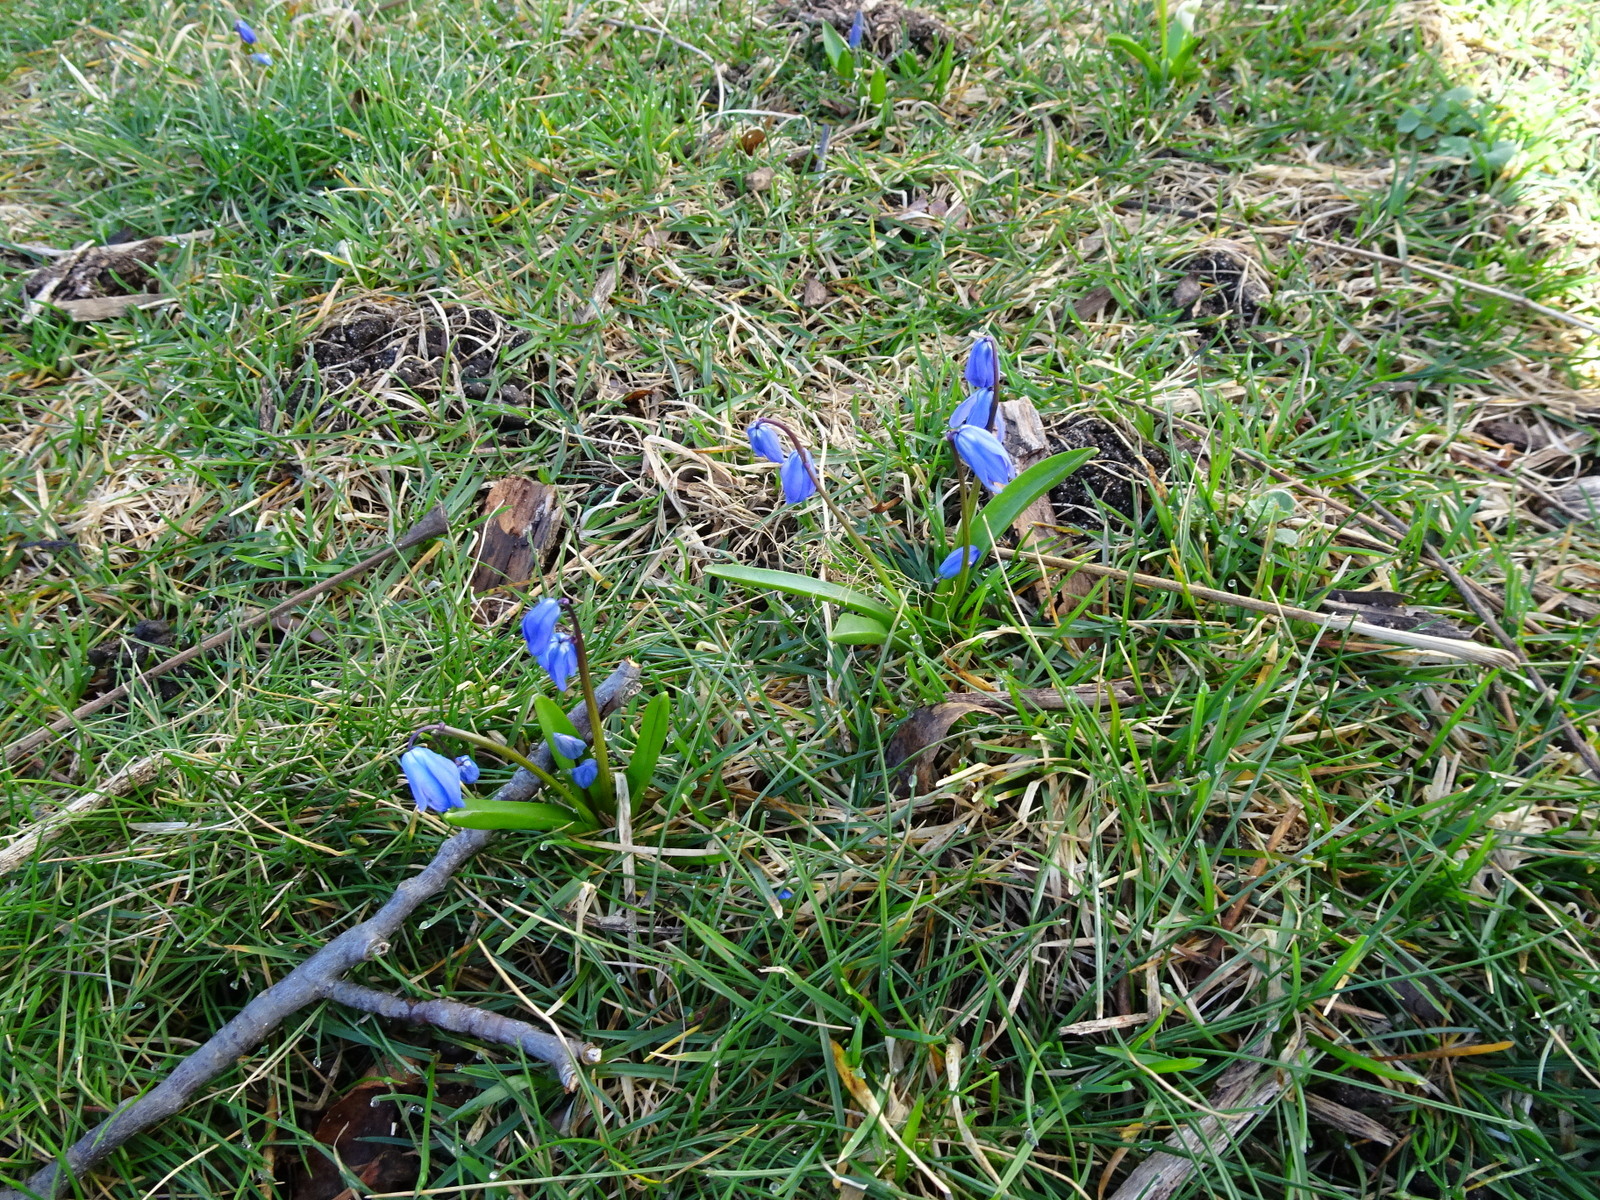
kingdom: Plantae
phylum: Tracheophyta
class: Liliopsida
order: Asparagales
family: Asparagaceae
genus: Scilla
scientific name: Scilla siberica
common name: Siberian squill
